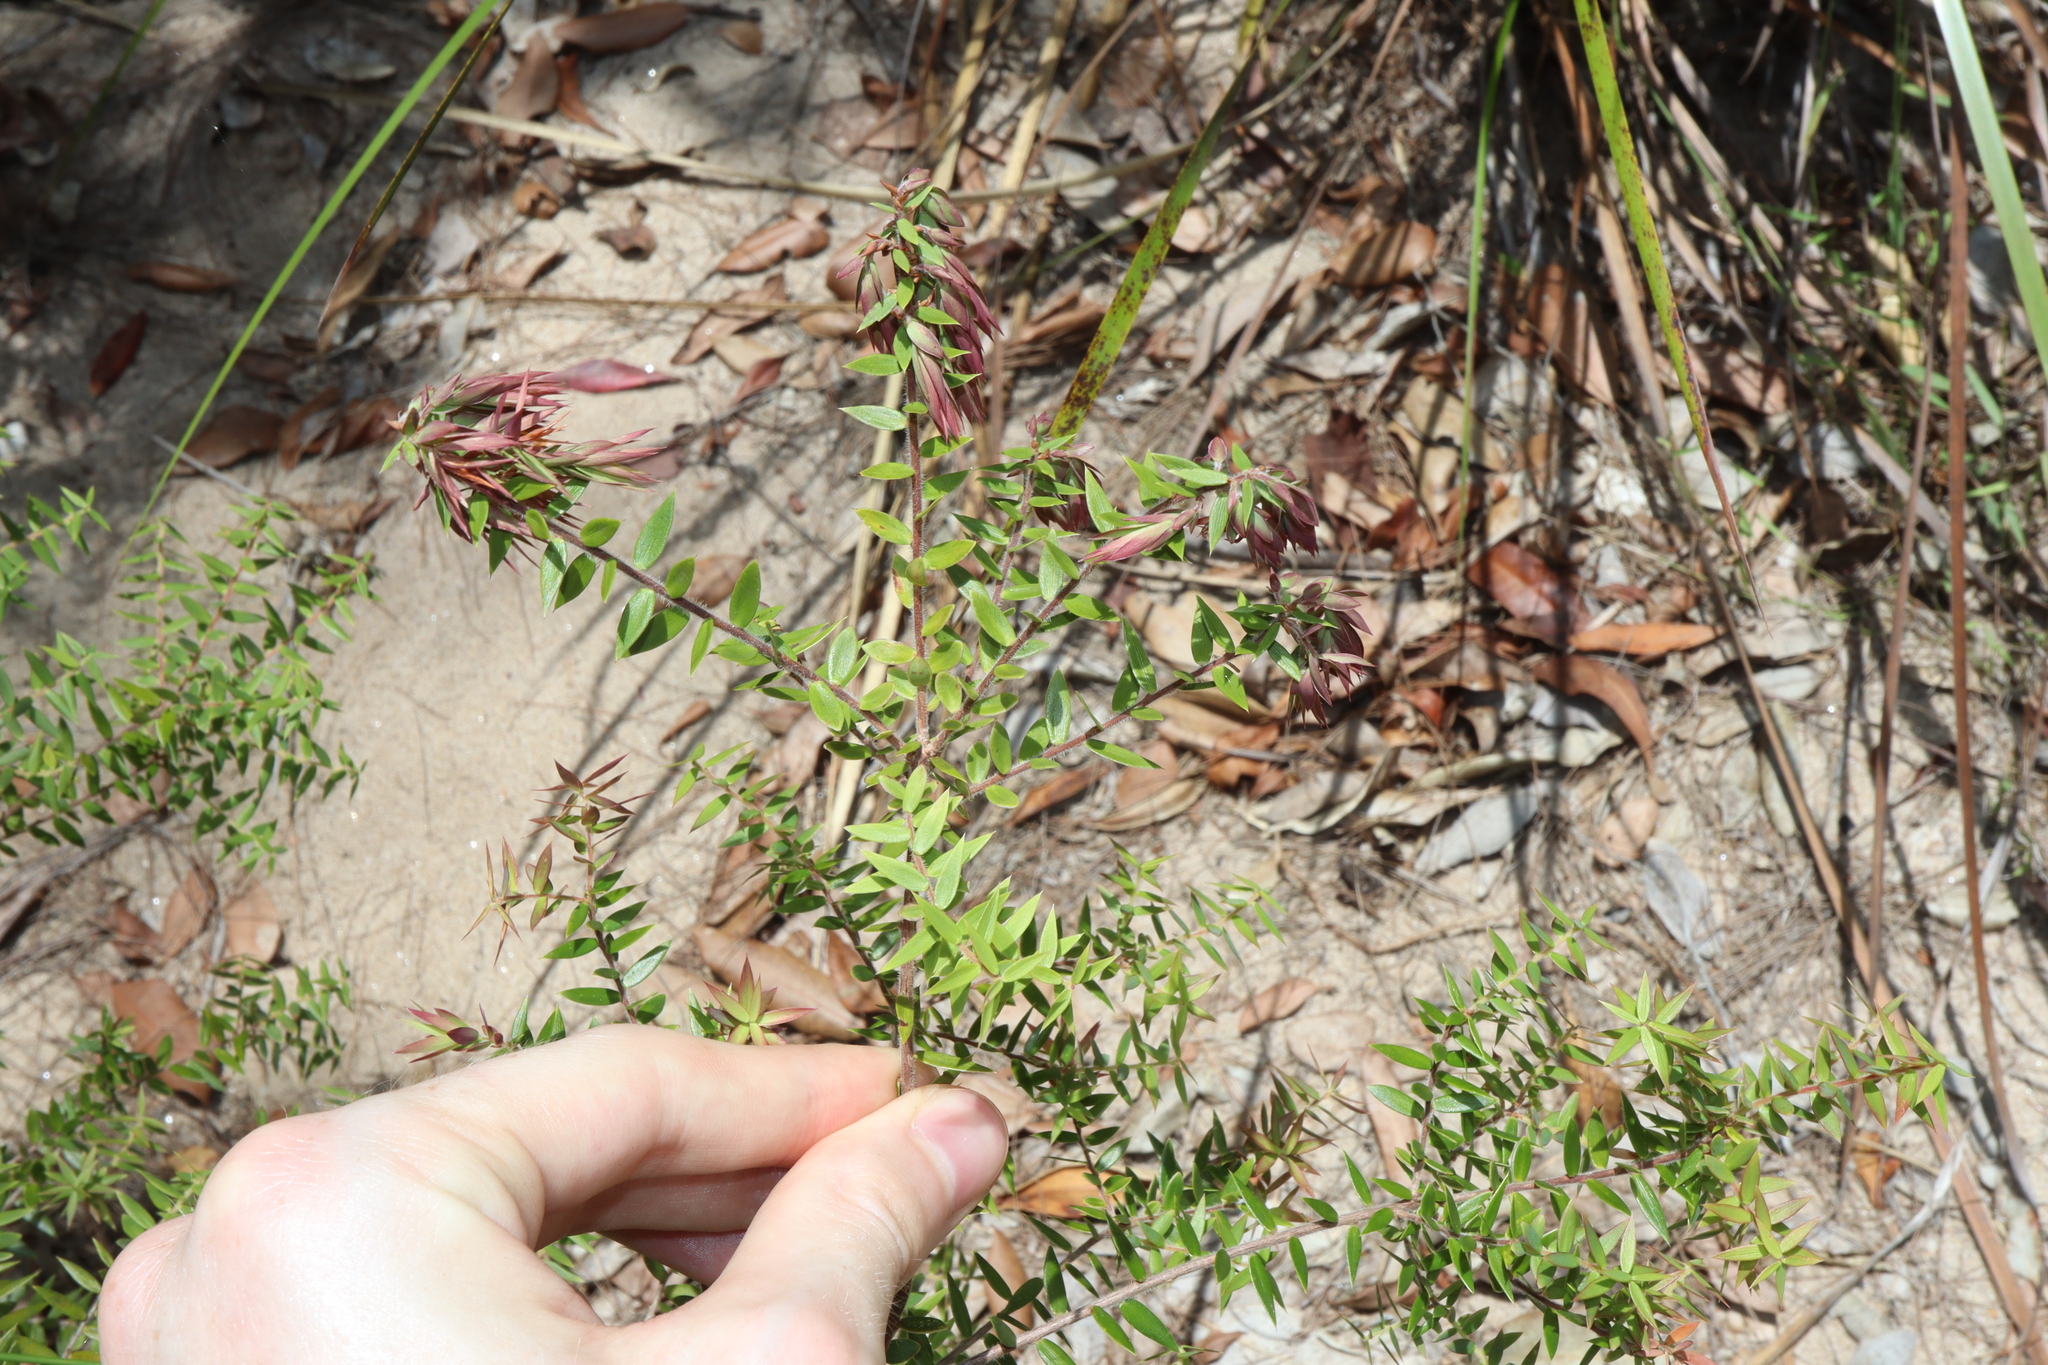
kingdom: Plantae
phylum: Tracheophyta
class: Magnoliopsida
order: Ericales
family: Ericaceae
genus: Acrotriche
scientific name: Acrotriche divaricata
